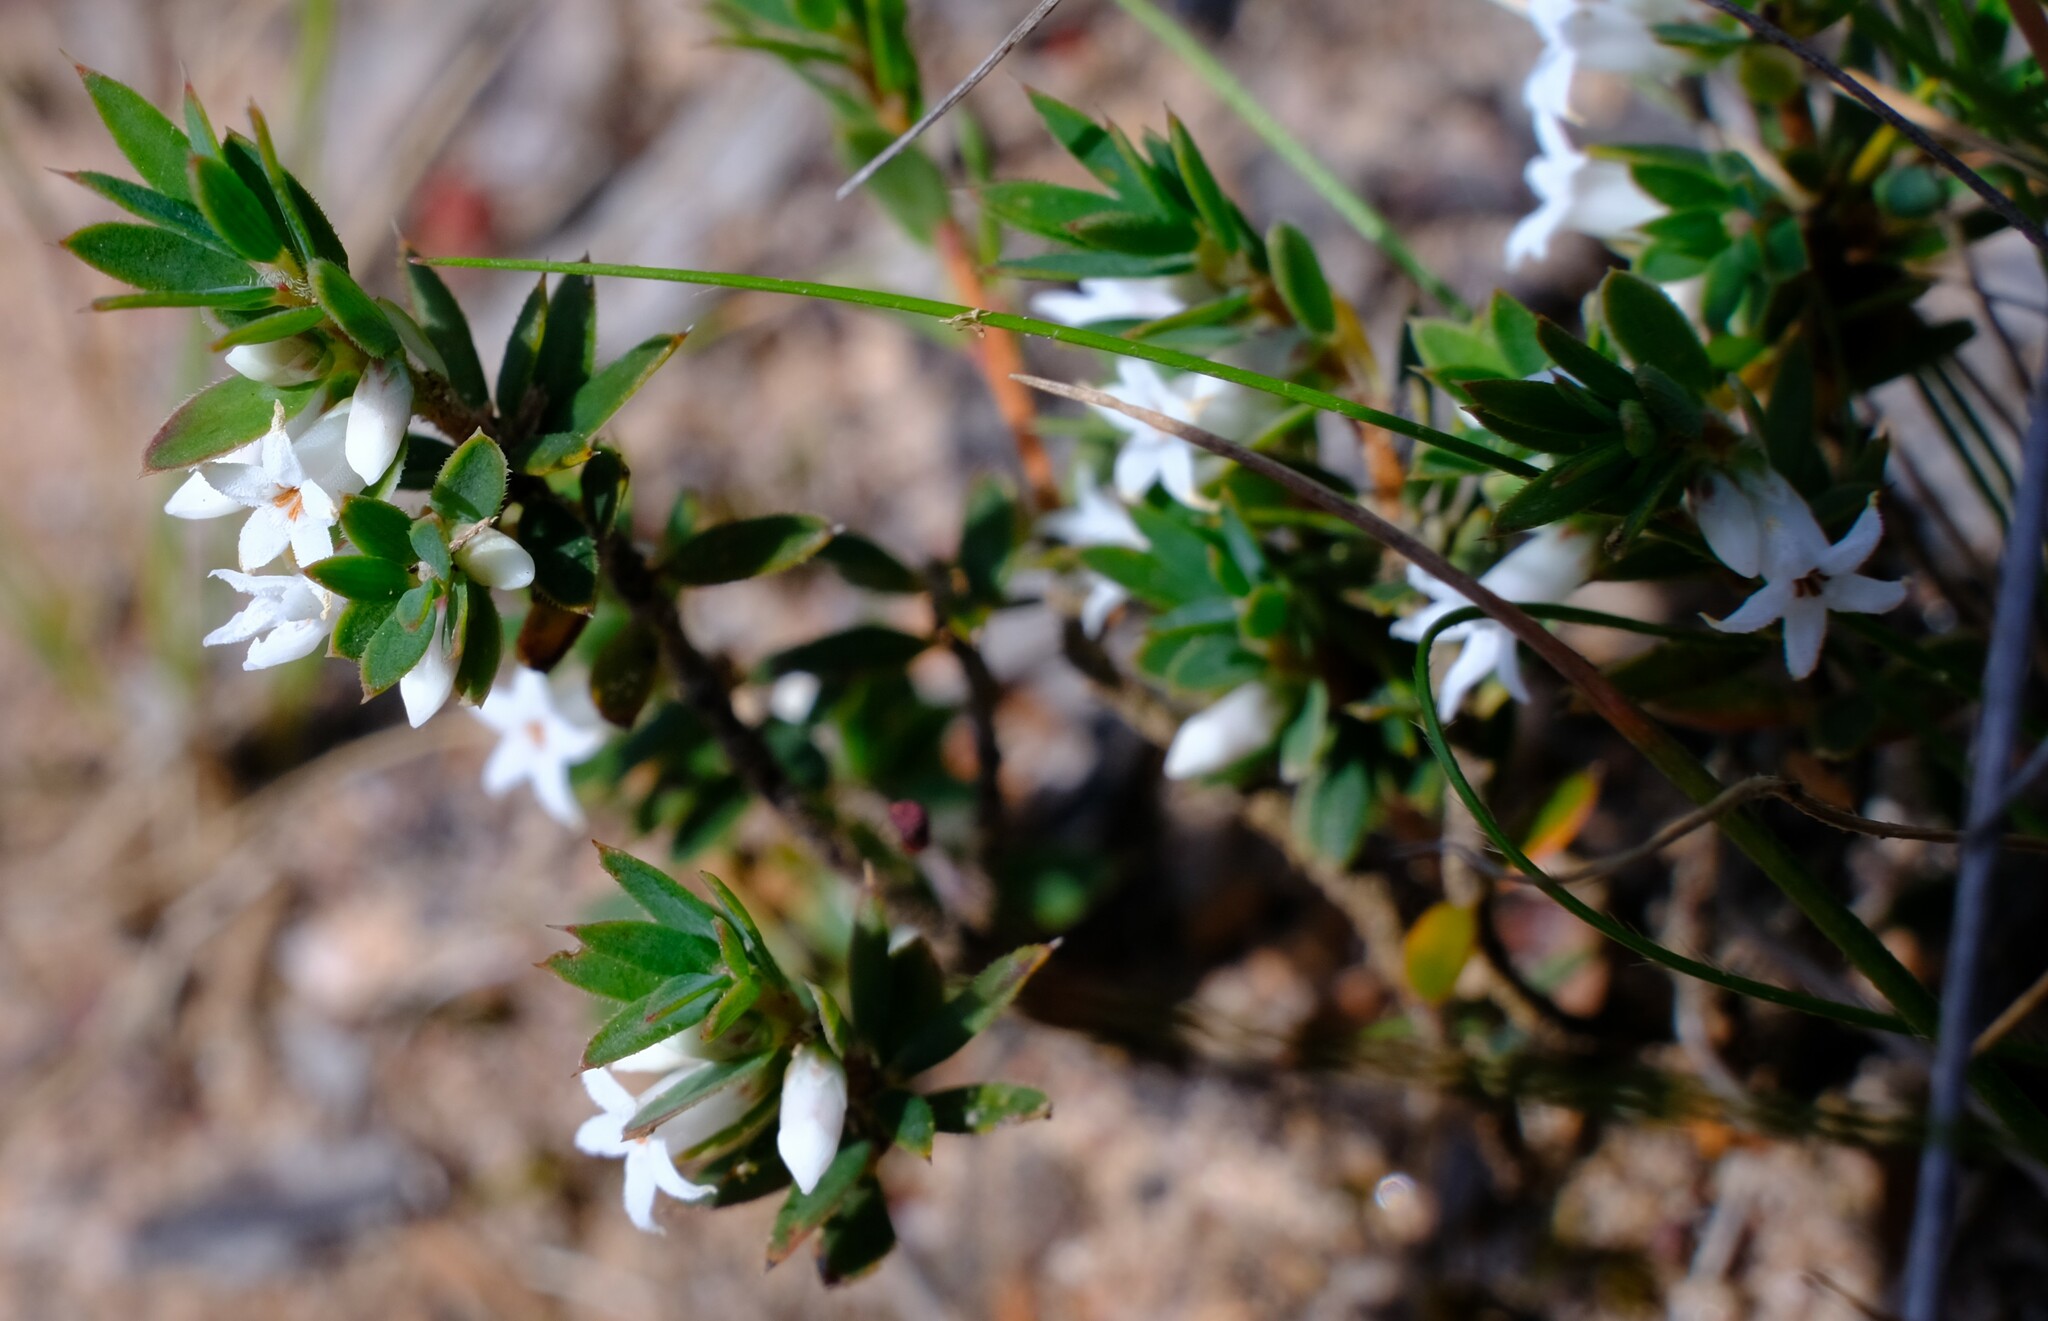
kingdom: Plantae
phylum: Tracheophyta
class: Magnoliopsida
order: Ericales
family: Ericaceae
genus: Brachyloma
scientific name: Brachyloma ciliatum
